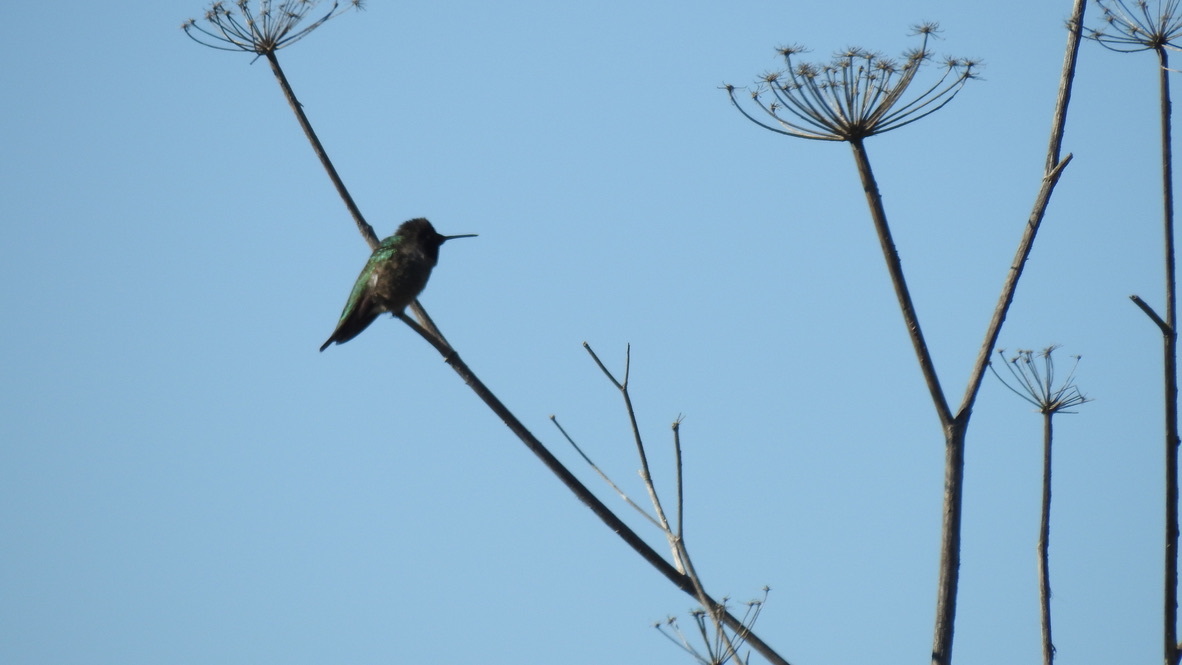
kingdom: Animalia
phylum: Chordata
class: Aves
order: Apodiformes
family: Trochilidae
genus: Calypte
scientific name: Calypte anna
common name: Anna's hummingbird
